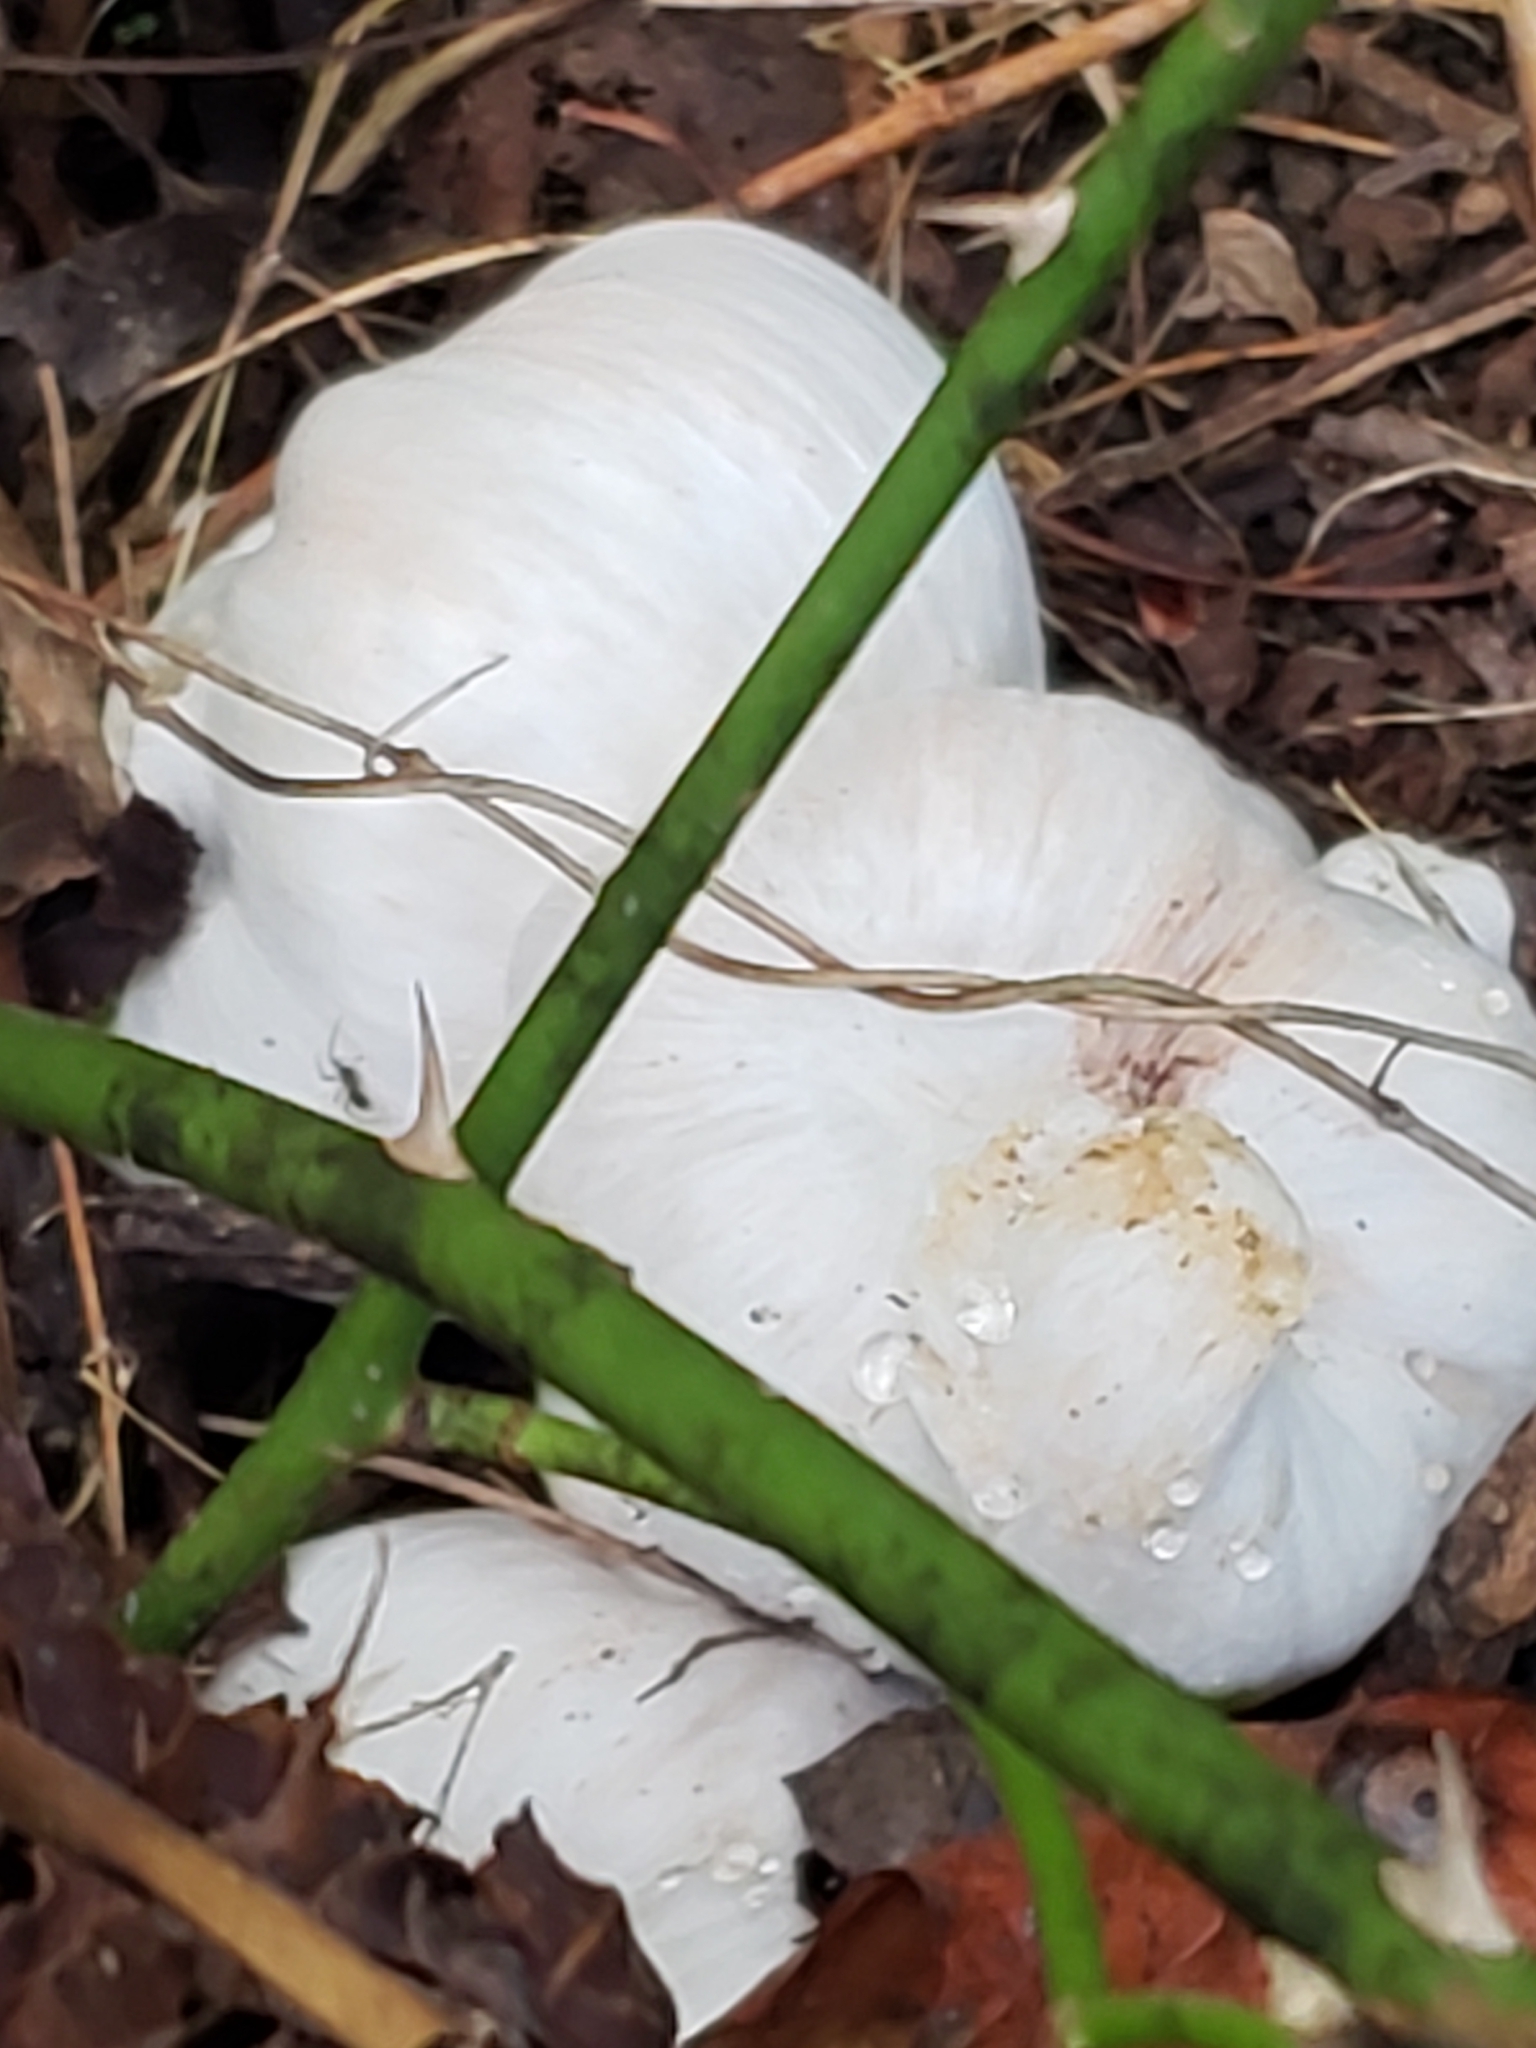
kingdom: Plantae
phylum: Tracheophyta
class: Magnoliopsida
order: Lamiales
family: Plantaginaceae
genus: Chelone
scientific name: Chelone glabra
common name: Snakehead
